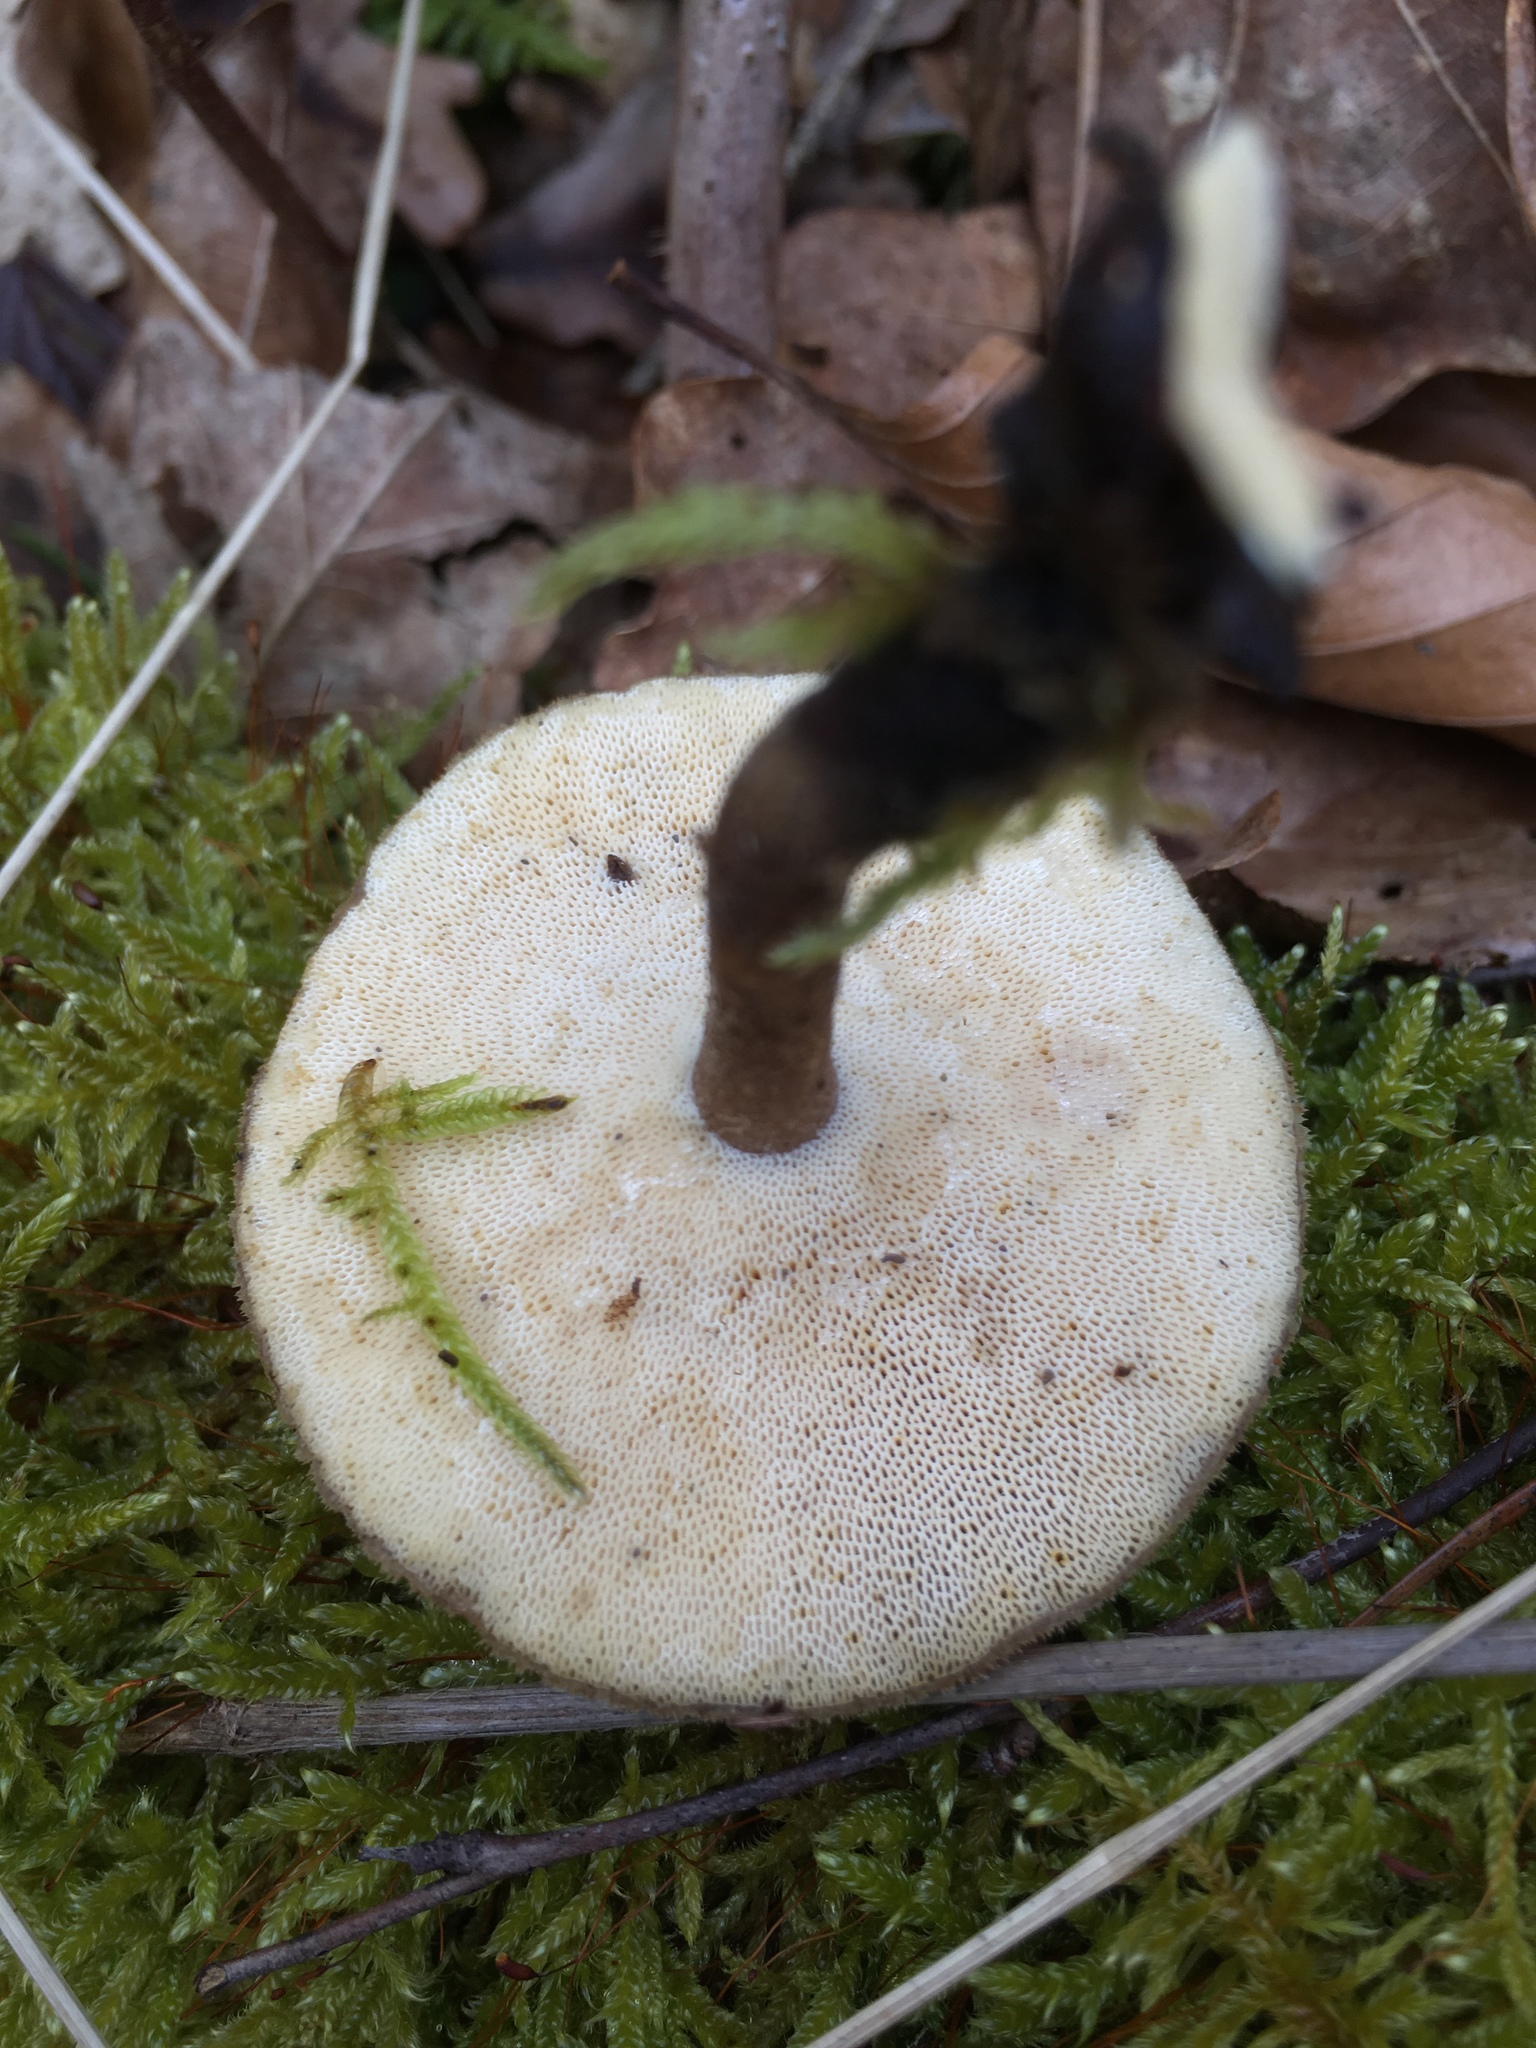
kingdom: Fungi
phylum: Basidiomycota
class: Agaricomycetes
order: Polyporales
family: Polyporaceae
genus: Lentinus
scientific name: Lentinus brumalis
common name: Winter polypore
